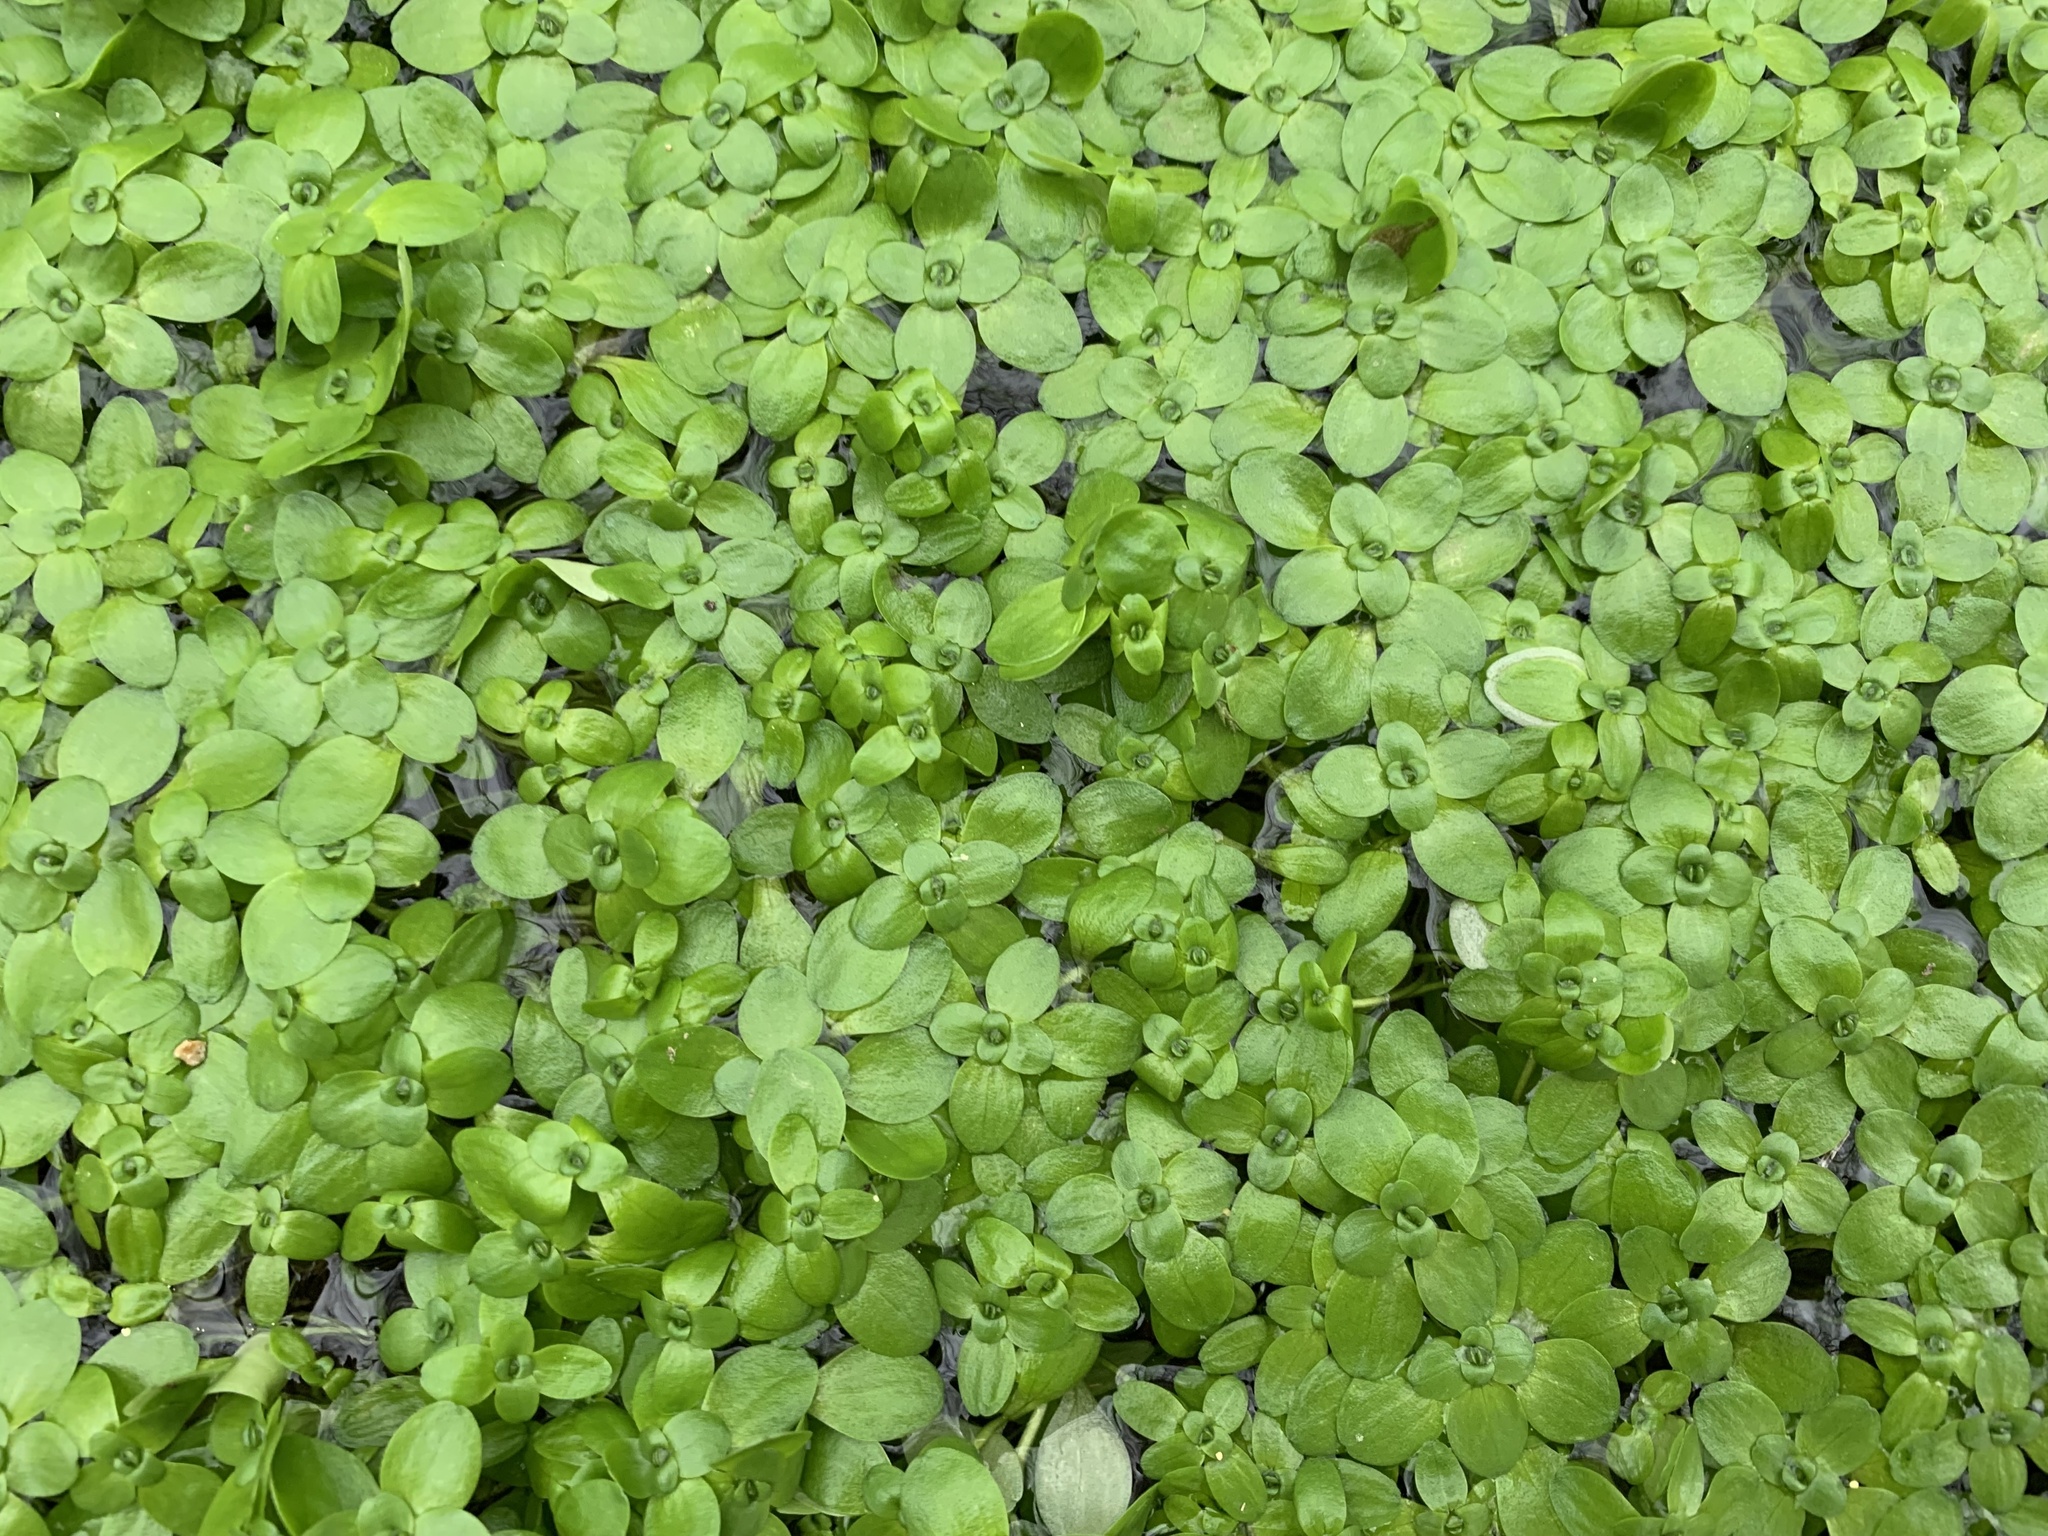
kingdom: Plantae
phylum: Tracheophyta
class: Magnoliopsida
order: Lamiales
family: Plantaginaceae
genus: Callitriche
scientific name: Callitriche stagnalis
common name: Common water-starwort
